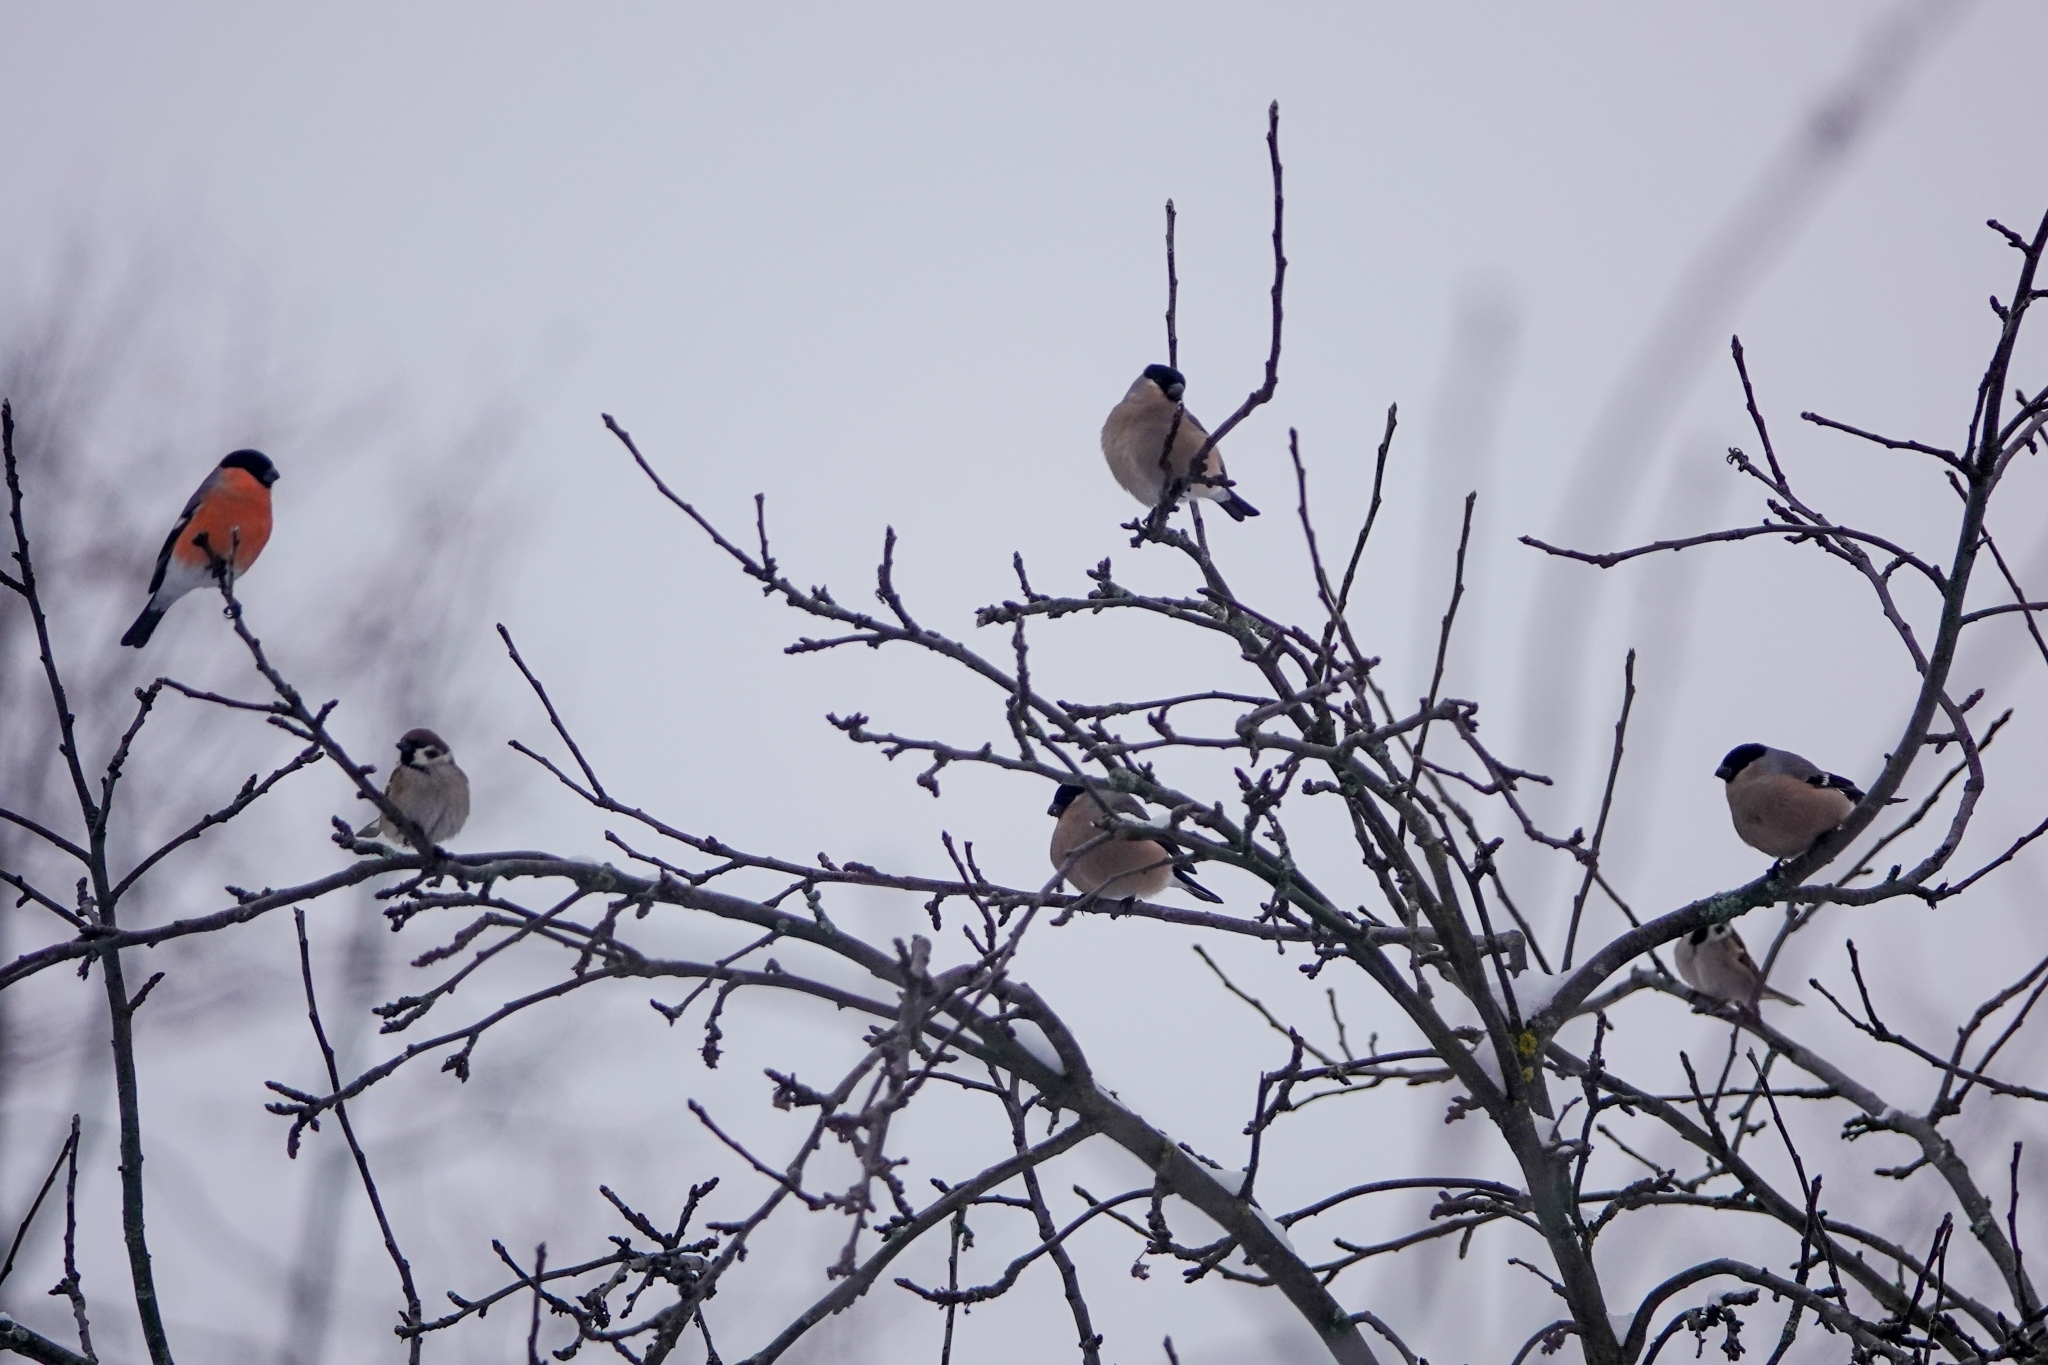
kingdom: Animalia
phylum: Chordata
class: Aves
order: Passeriformes
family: Fringillidae
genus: Pyrrhula
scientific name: Pyrrhula pyrrhula
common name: Eurasian bullfinch
